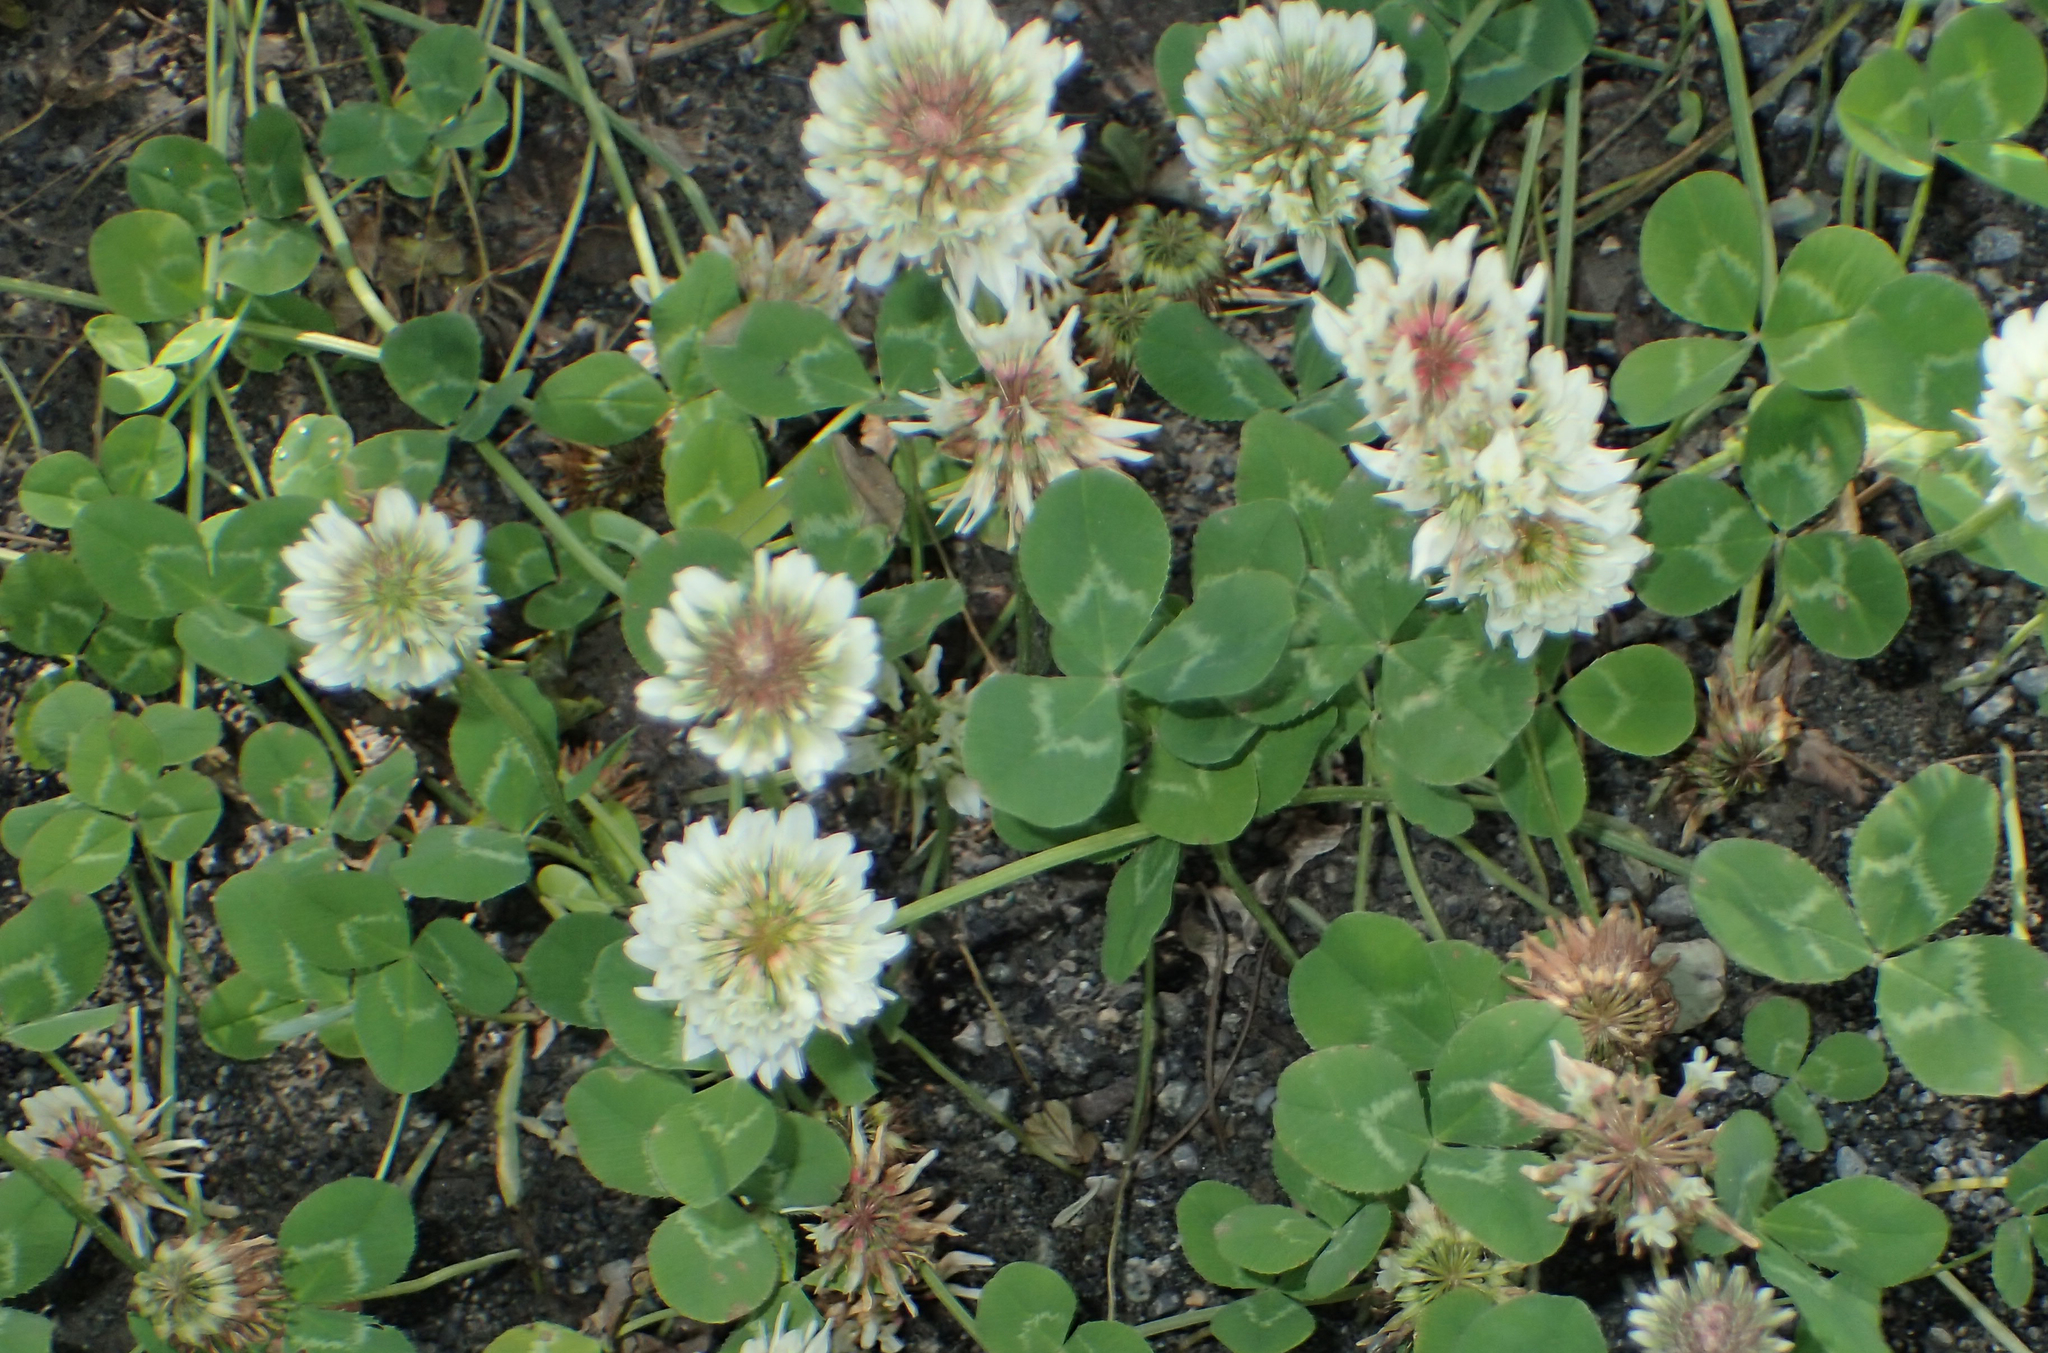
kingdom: Plantae
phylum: Tracheophyta
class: Magnoliopsida
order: Fabales
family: Fabaceae
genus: Trifolium
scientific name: Trifolium repens
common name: White clover
